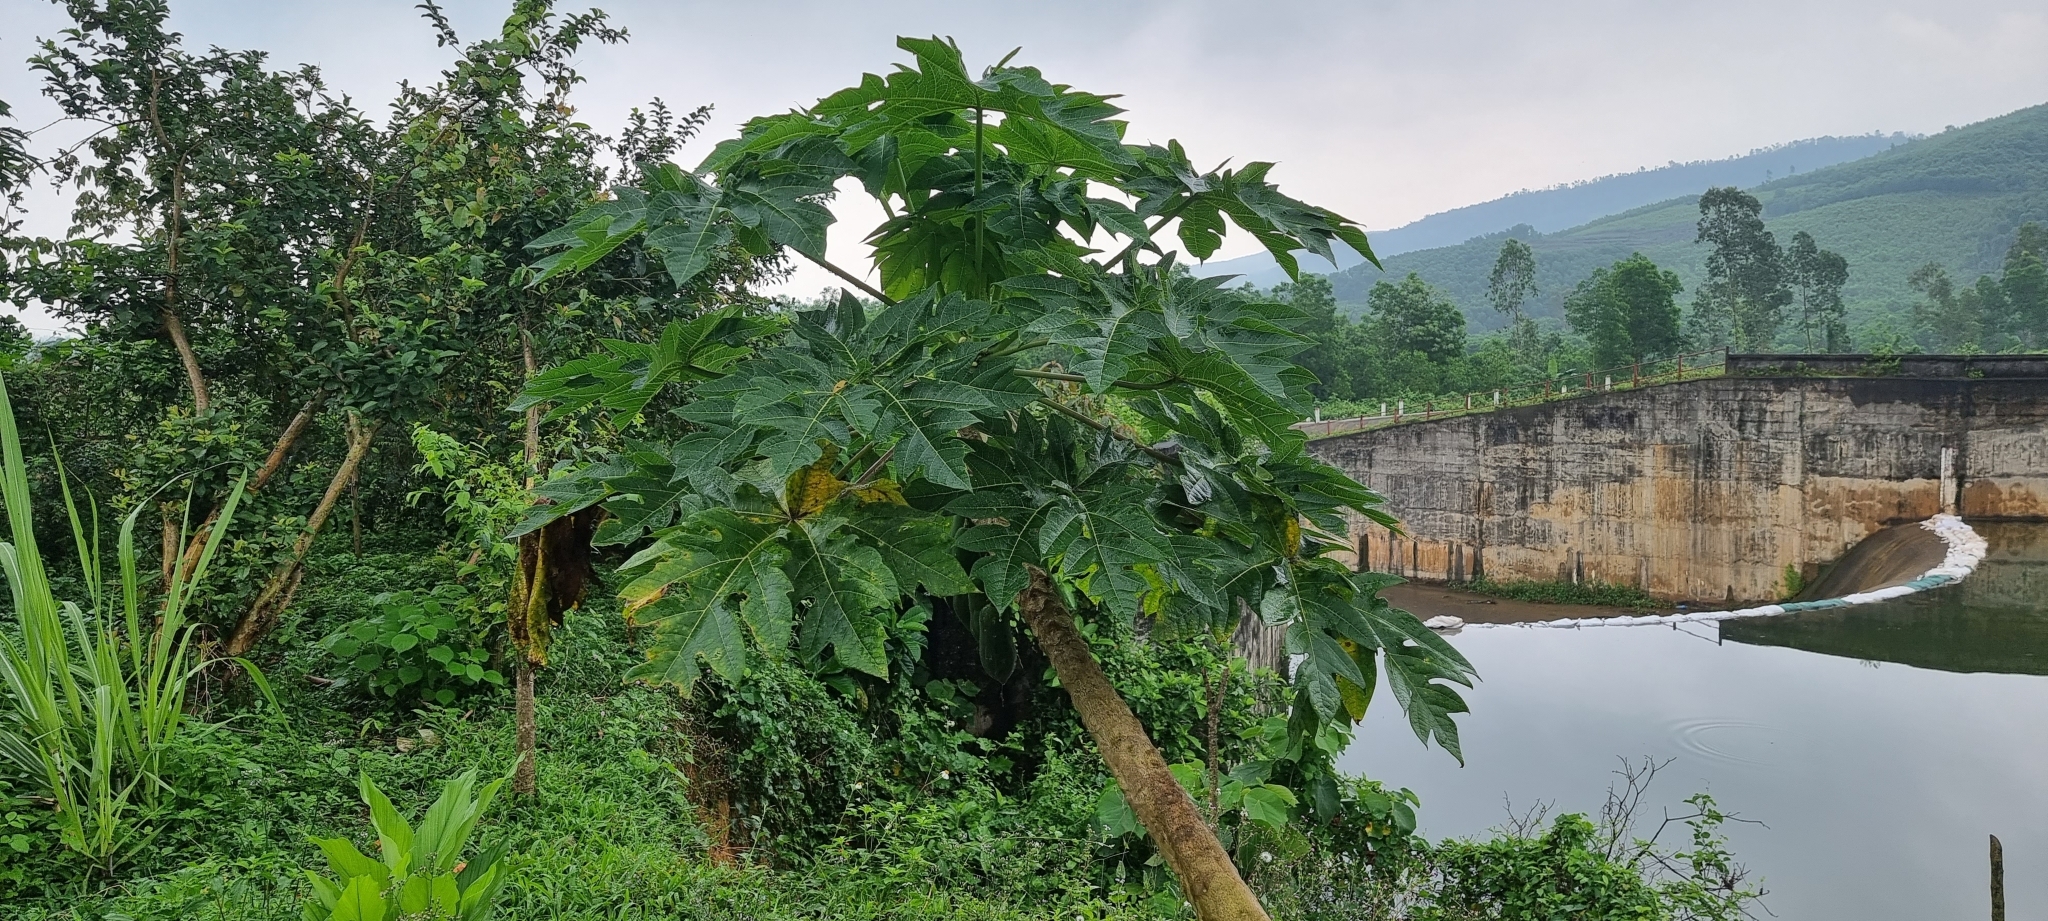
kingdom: Plantae
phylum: Tracheophyta
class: Magnoliopsida
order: Brassicales
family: Caricaceae
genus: Carica
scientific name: Carica papaya
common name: Papaya
